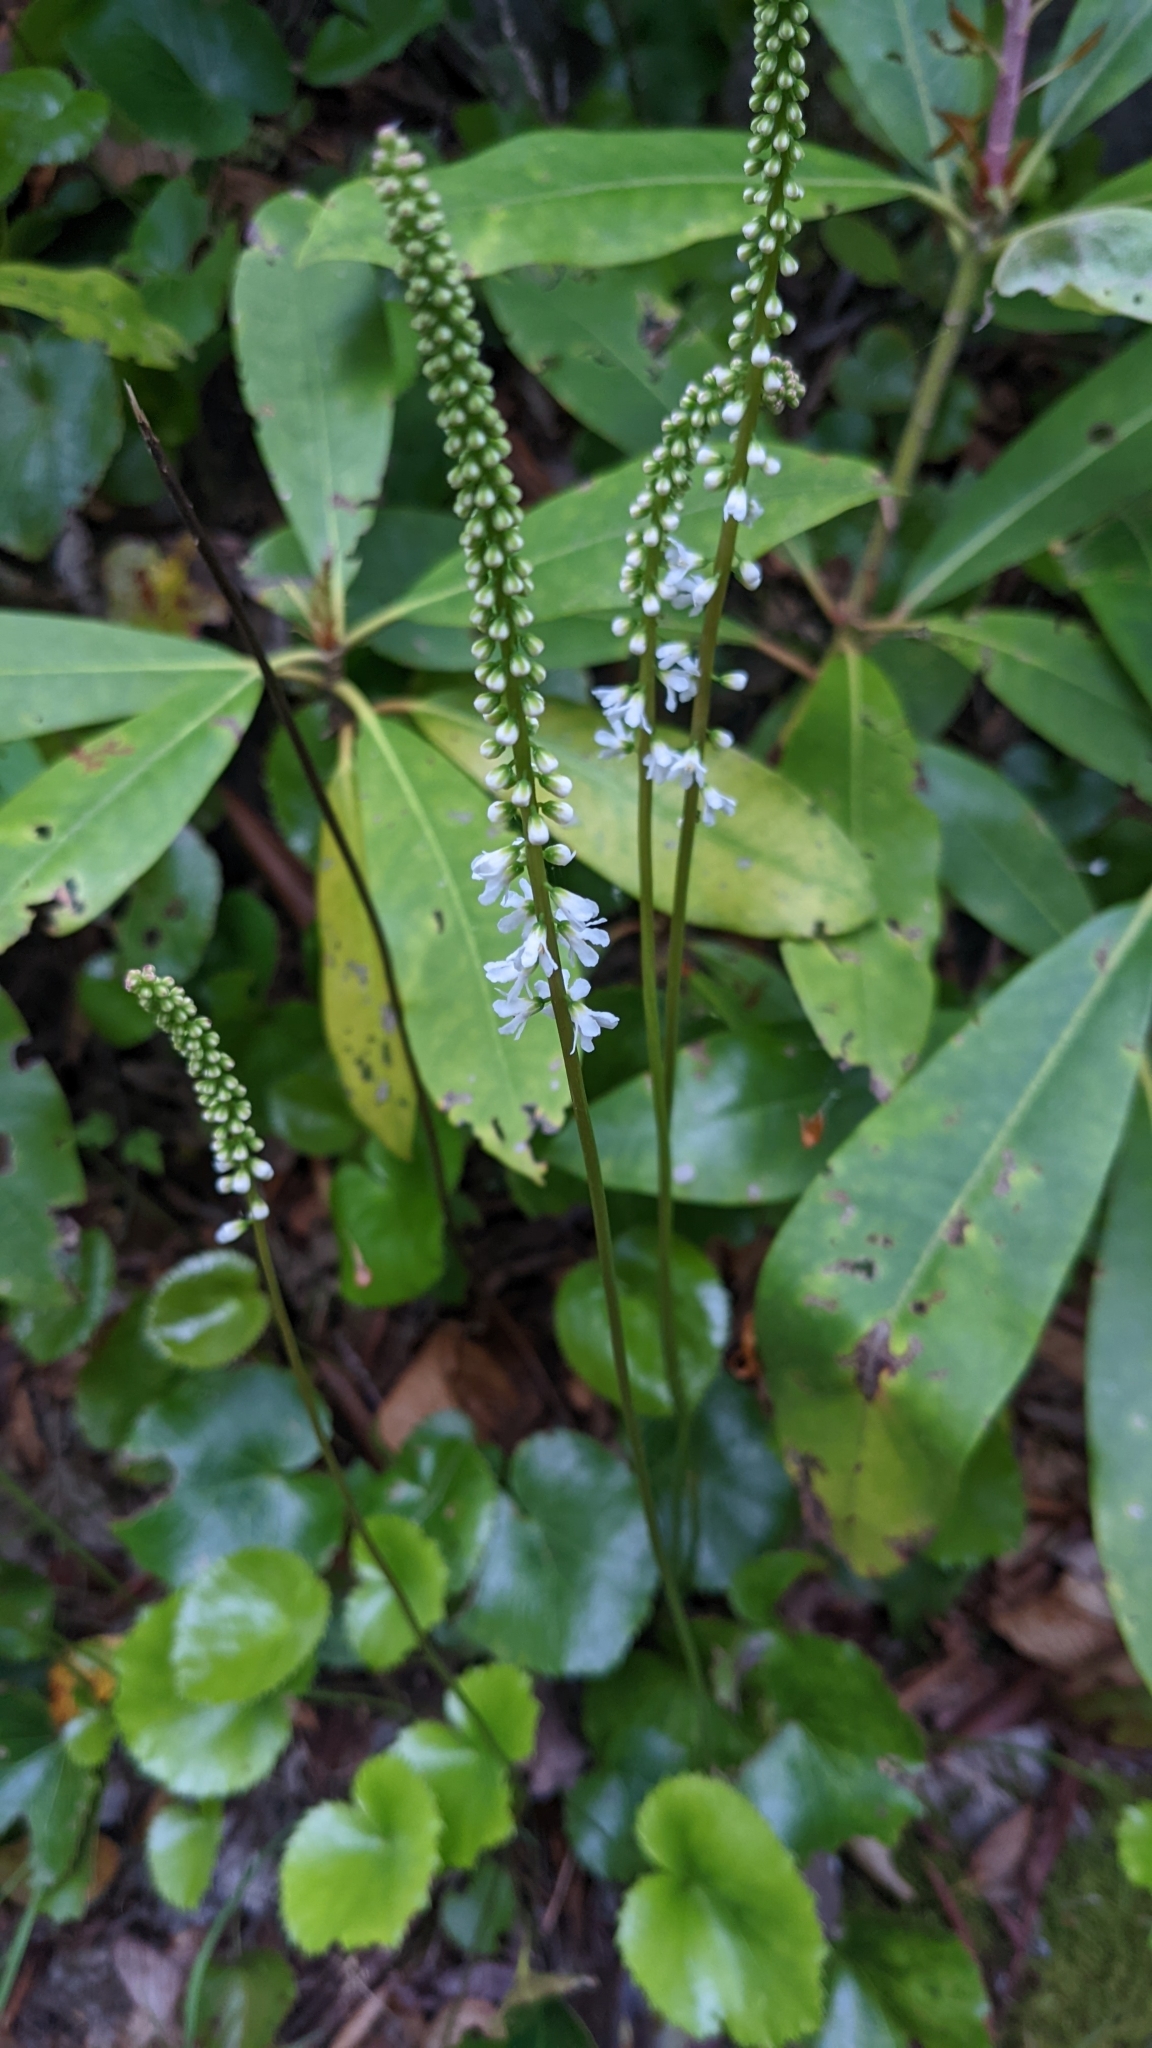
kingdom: Plantae
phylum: Tracheophyta
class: Magnoliopsida
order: Ericales
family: Diapensiaceae
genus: Galax
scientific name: Galax urceolata
